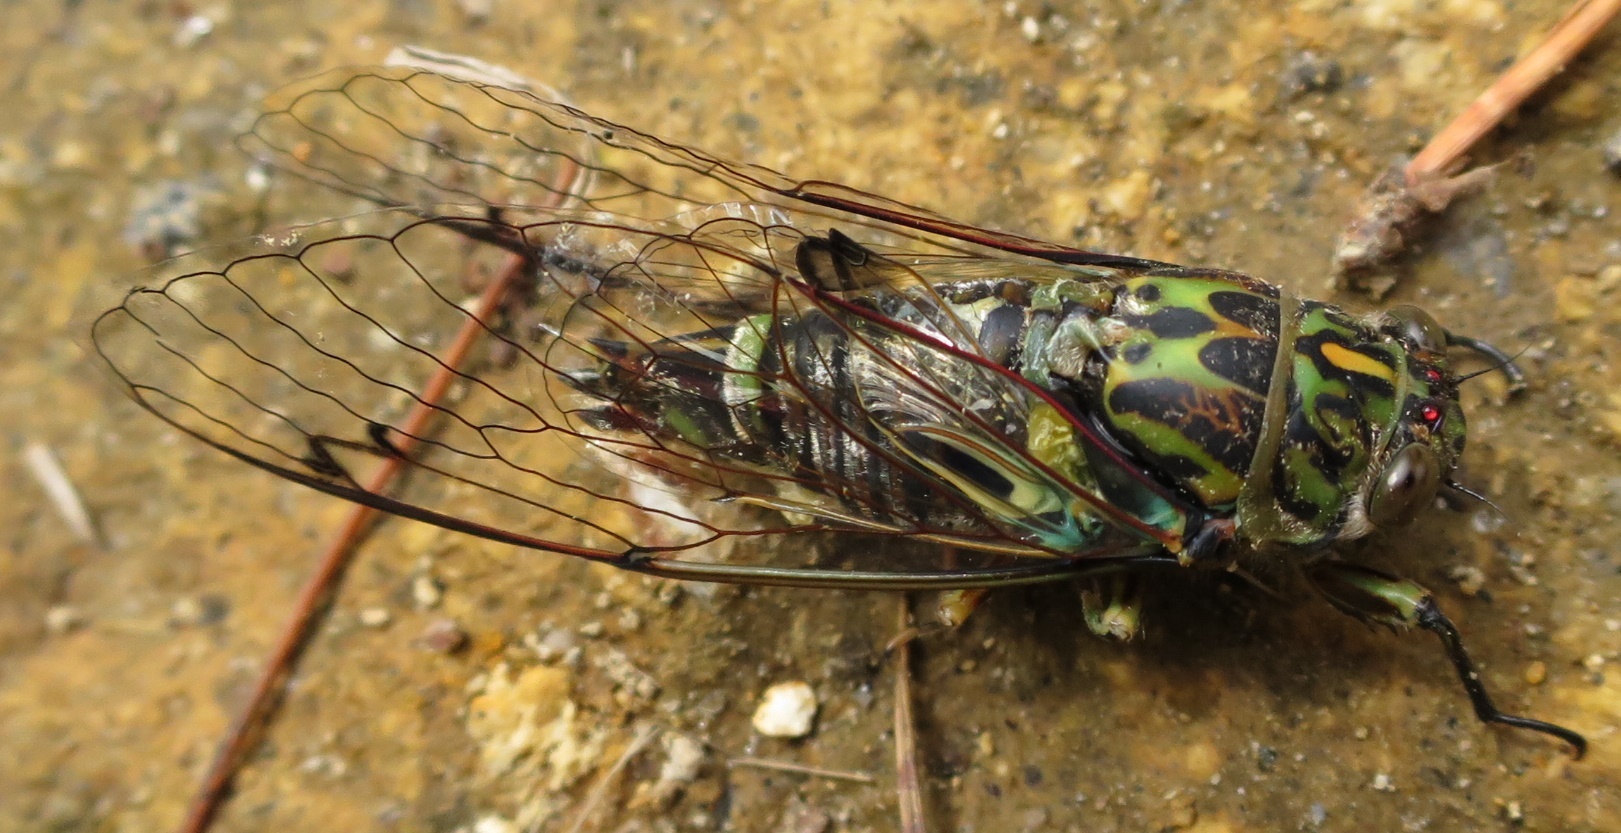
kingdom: Animalia
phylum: Arthropoda
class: Insecta
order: Hemiptera
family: Cicadidae
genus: Amphipsalta
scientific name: Amphipsalta zelandica
